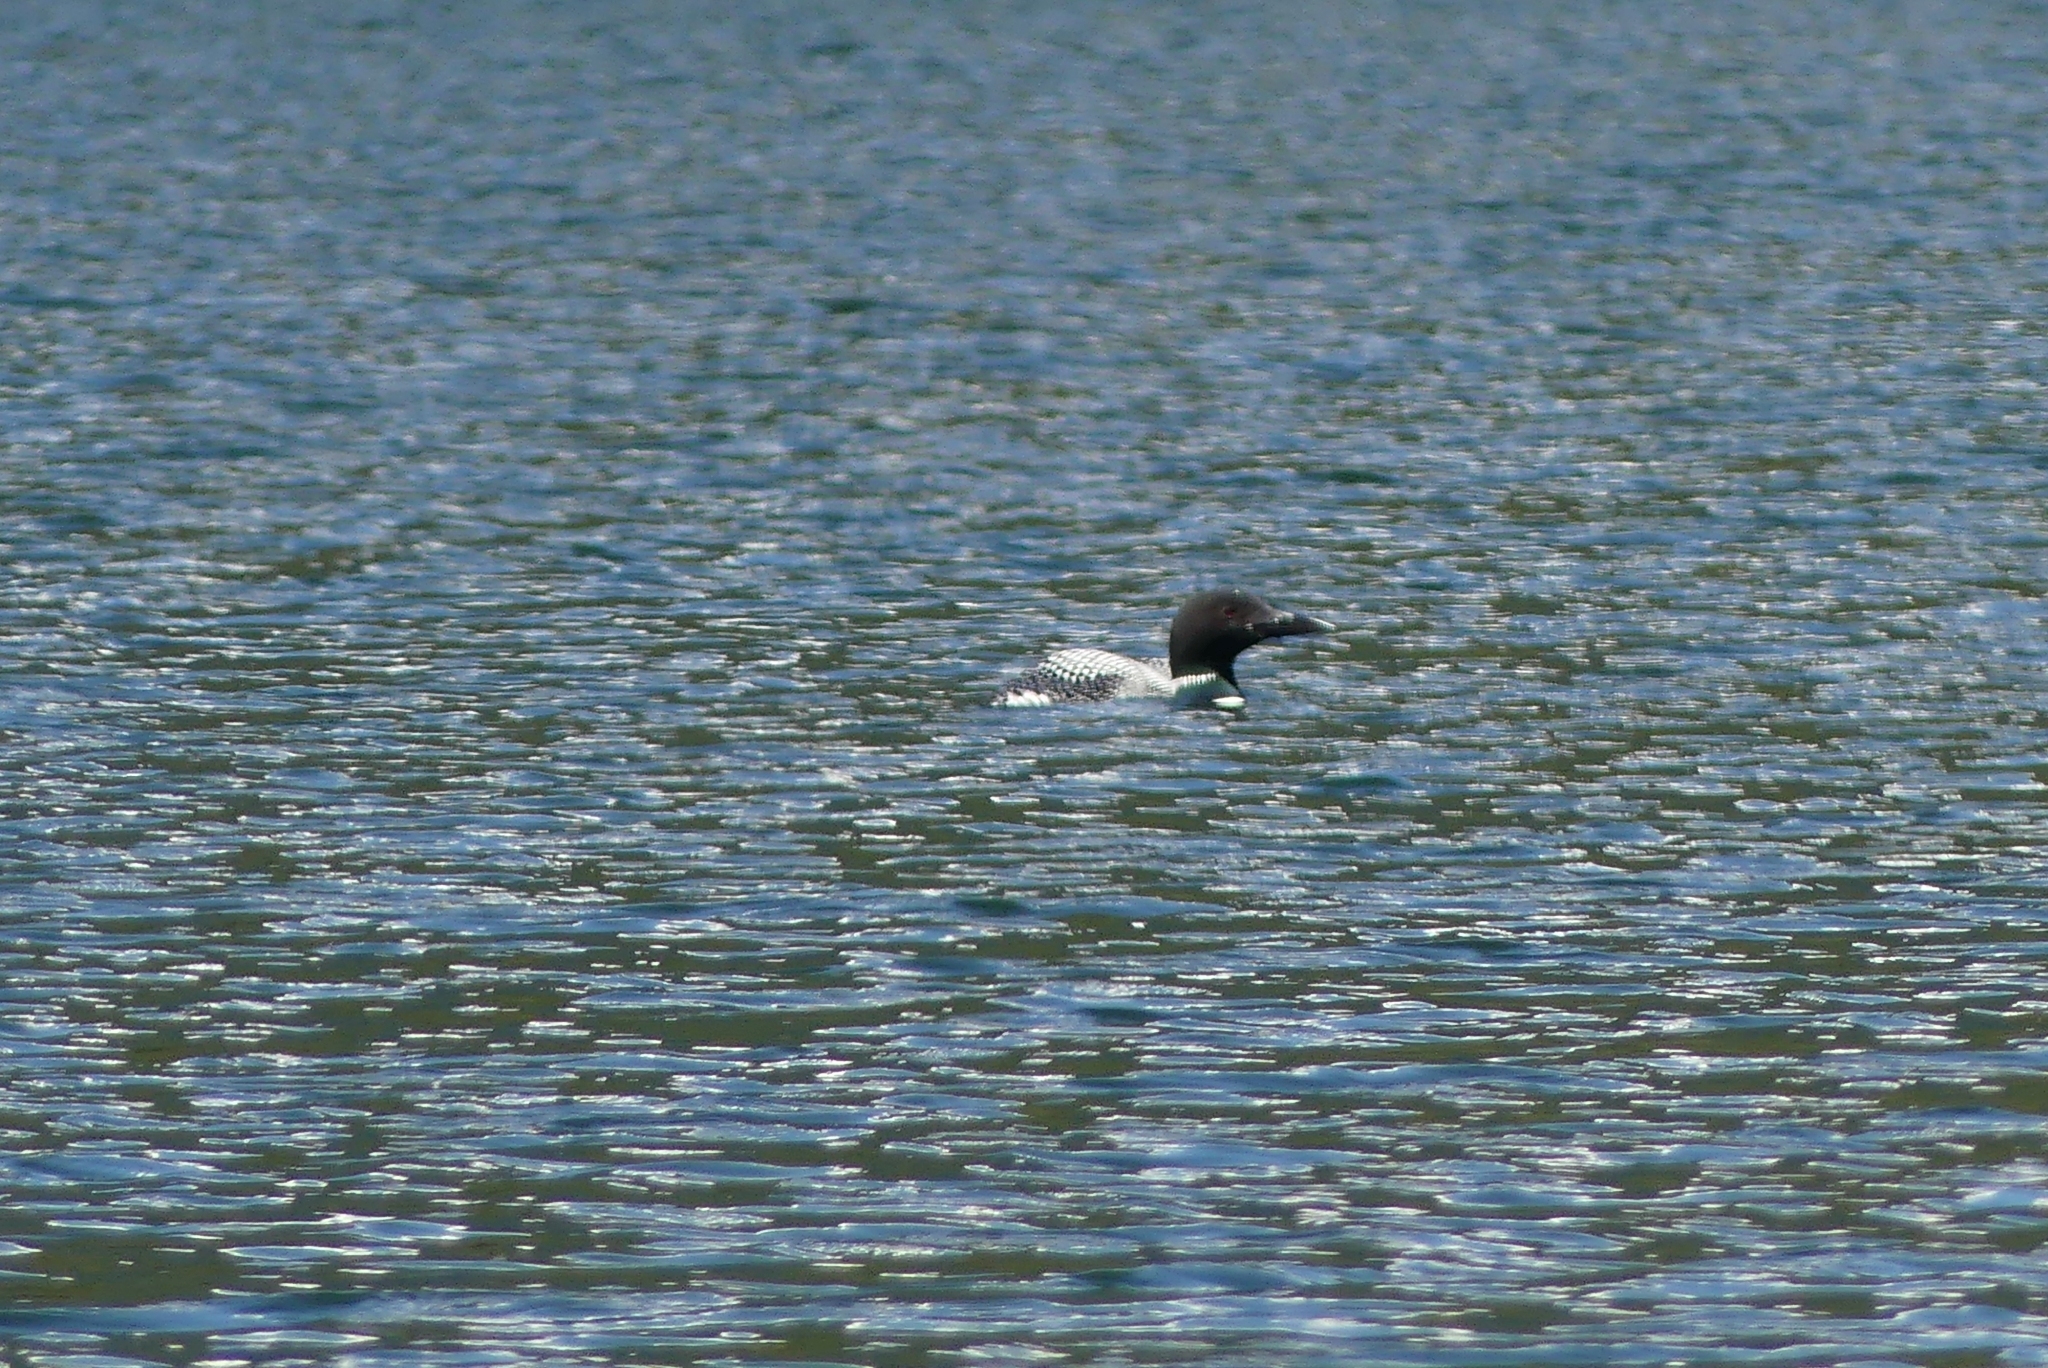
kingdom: Animalia
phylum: Chordata
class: Aves
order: Gaviiformes
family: Gaviidae
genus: Gavia
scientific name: Gavia immer
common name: Common loon
